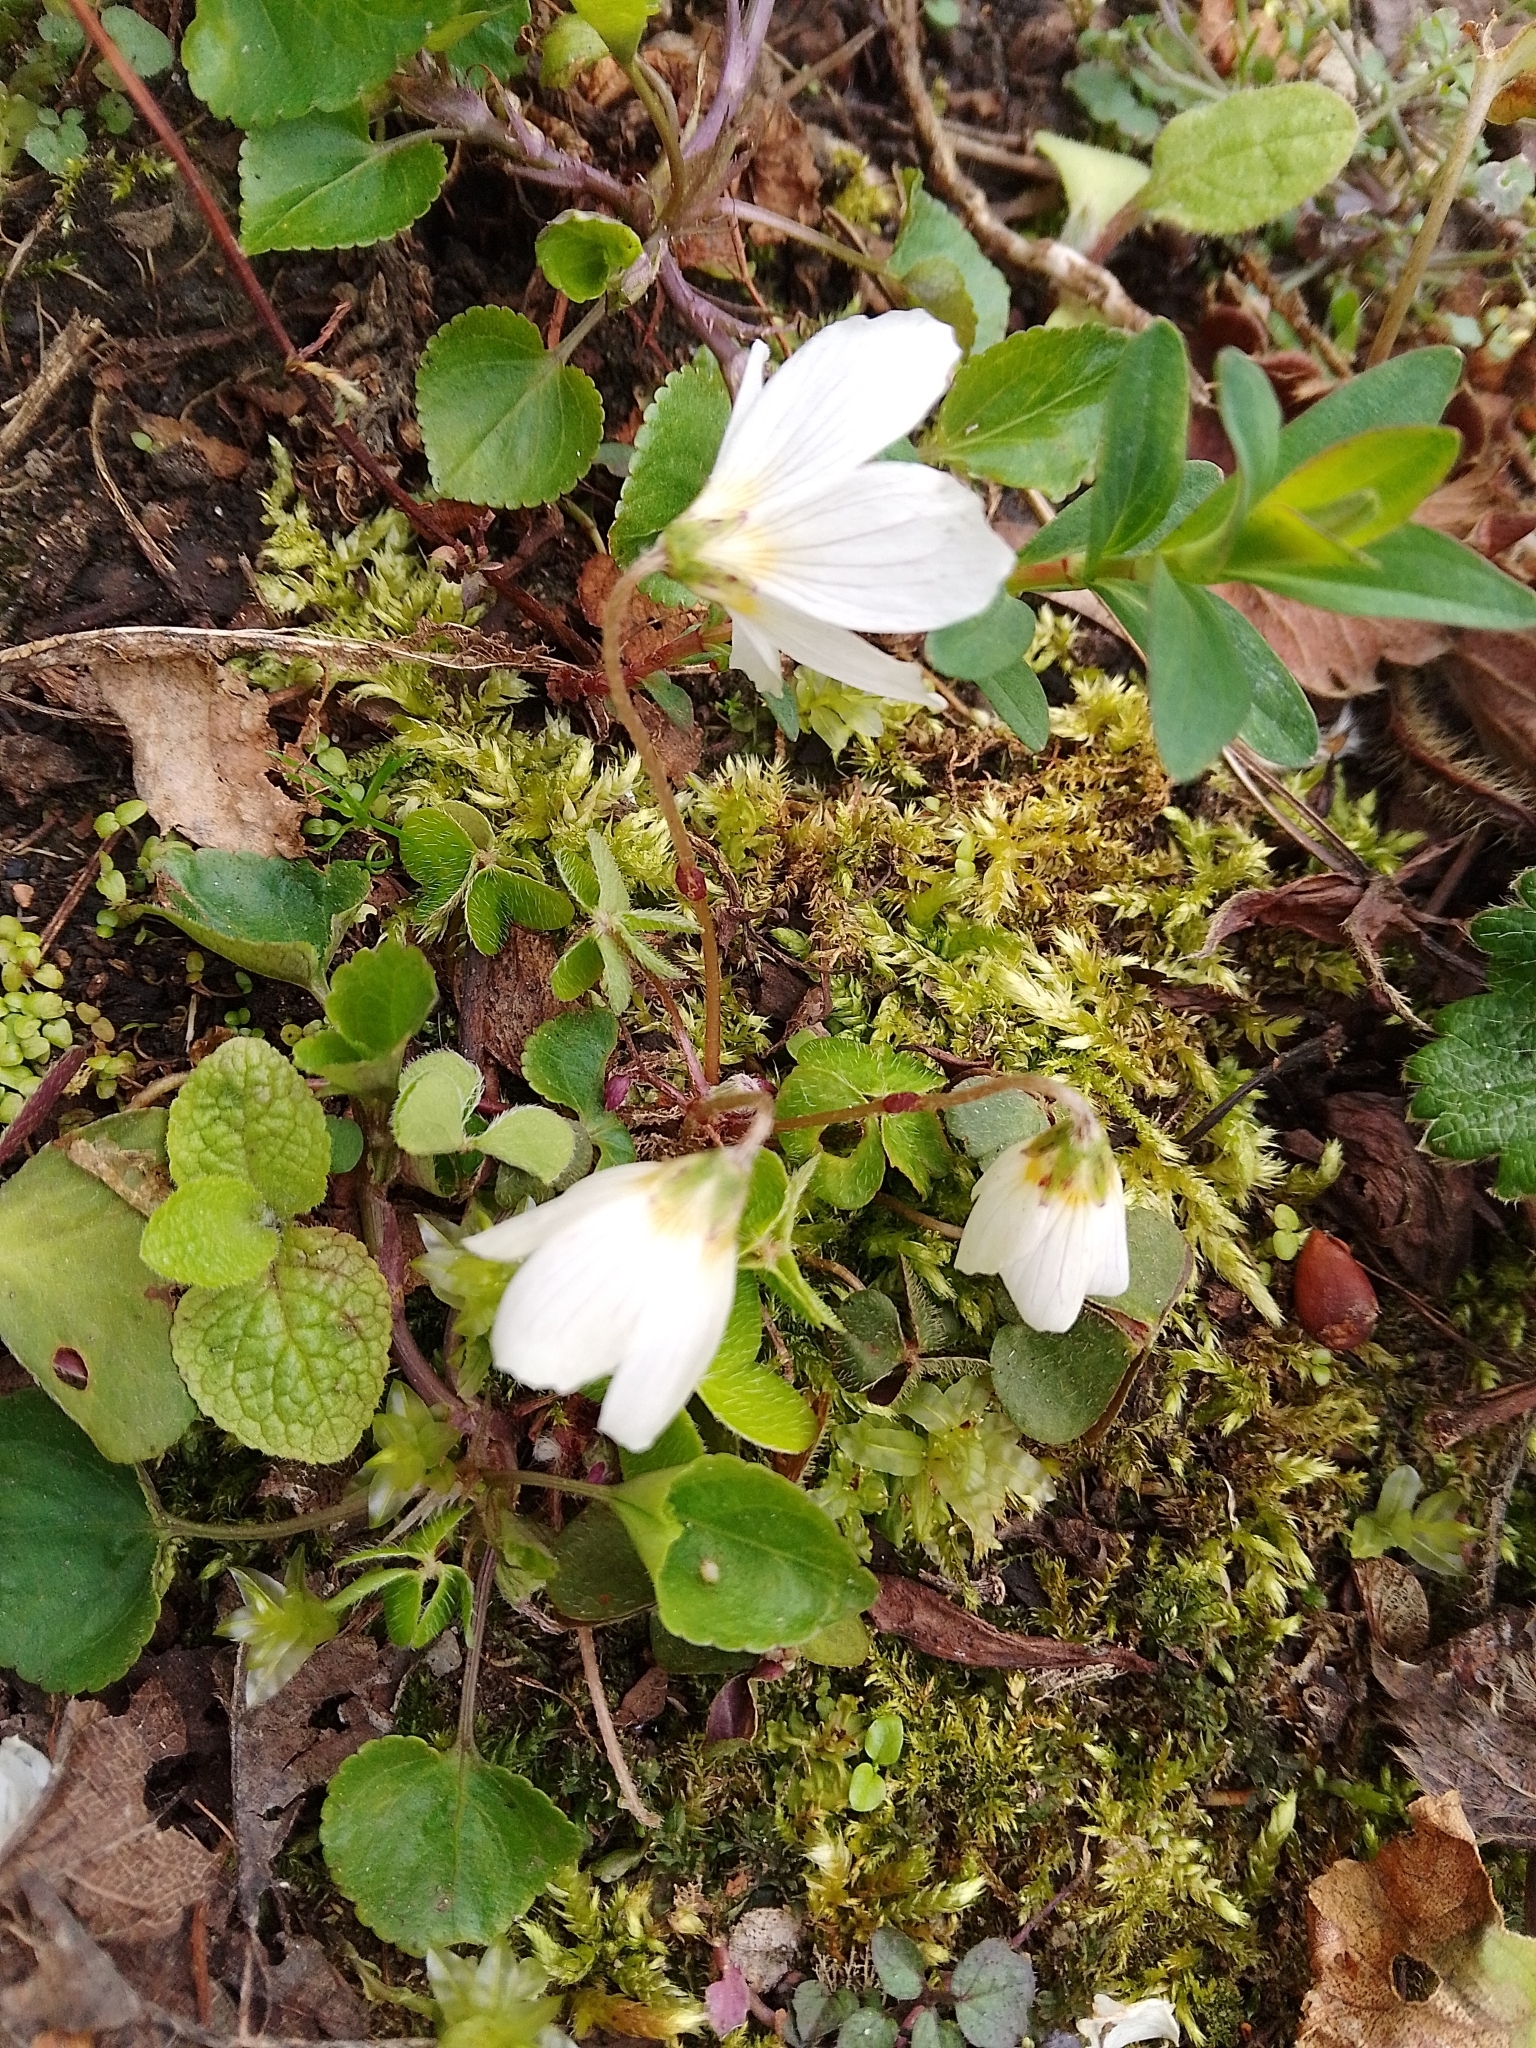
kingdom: Plantae
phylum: Tracheophyta
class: Magnoliopsida
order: Oxalidales
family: Oxalidaceae
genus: Oxalis
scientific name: Oxalis acetosella
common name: Wood-sorrel
